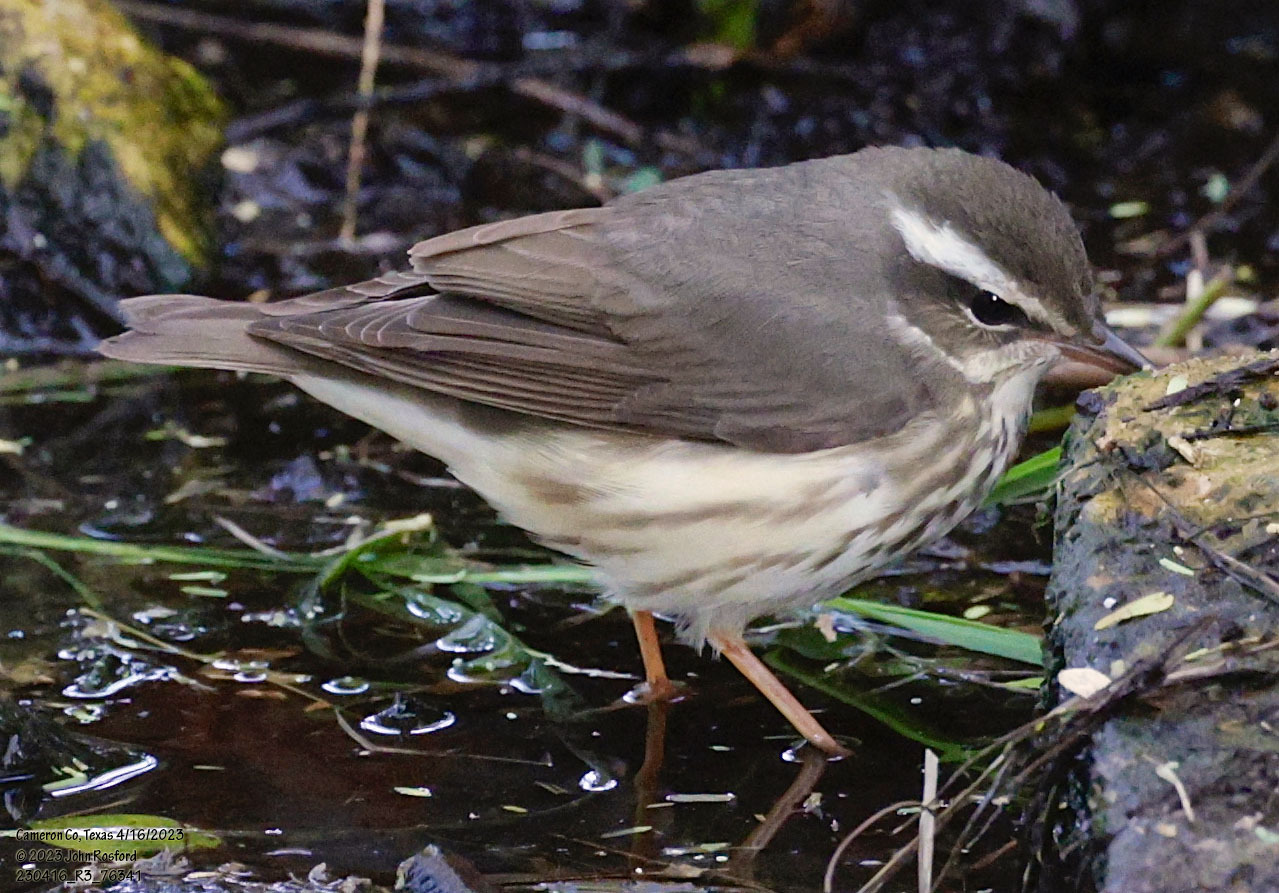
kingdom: Animalia
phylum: Chordata
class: Aves
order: Passeriformes
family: Parulidae
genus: Parkesia
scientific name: Parkesia motacilla
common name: Louisiana waterthrush
